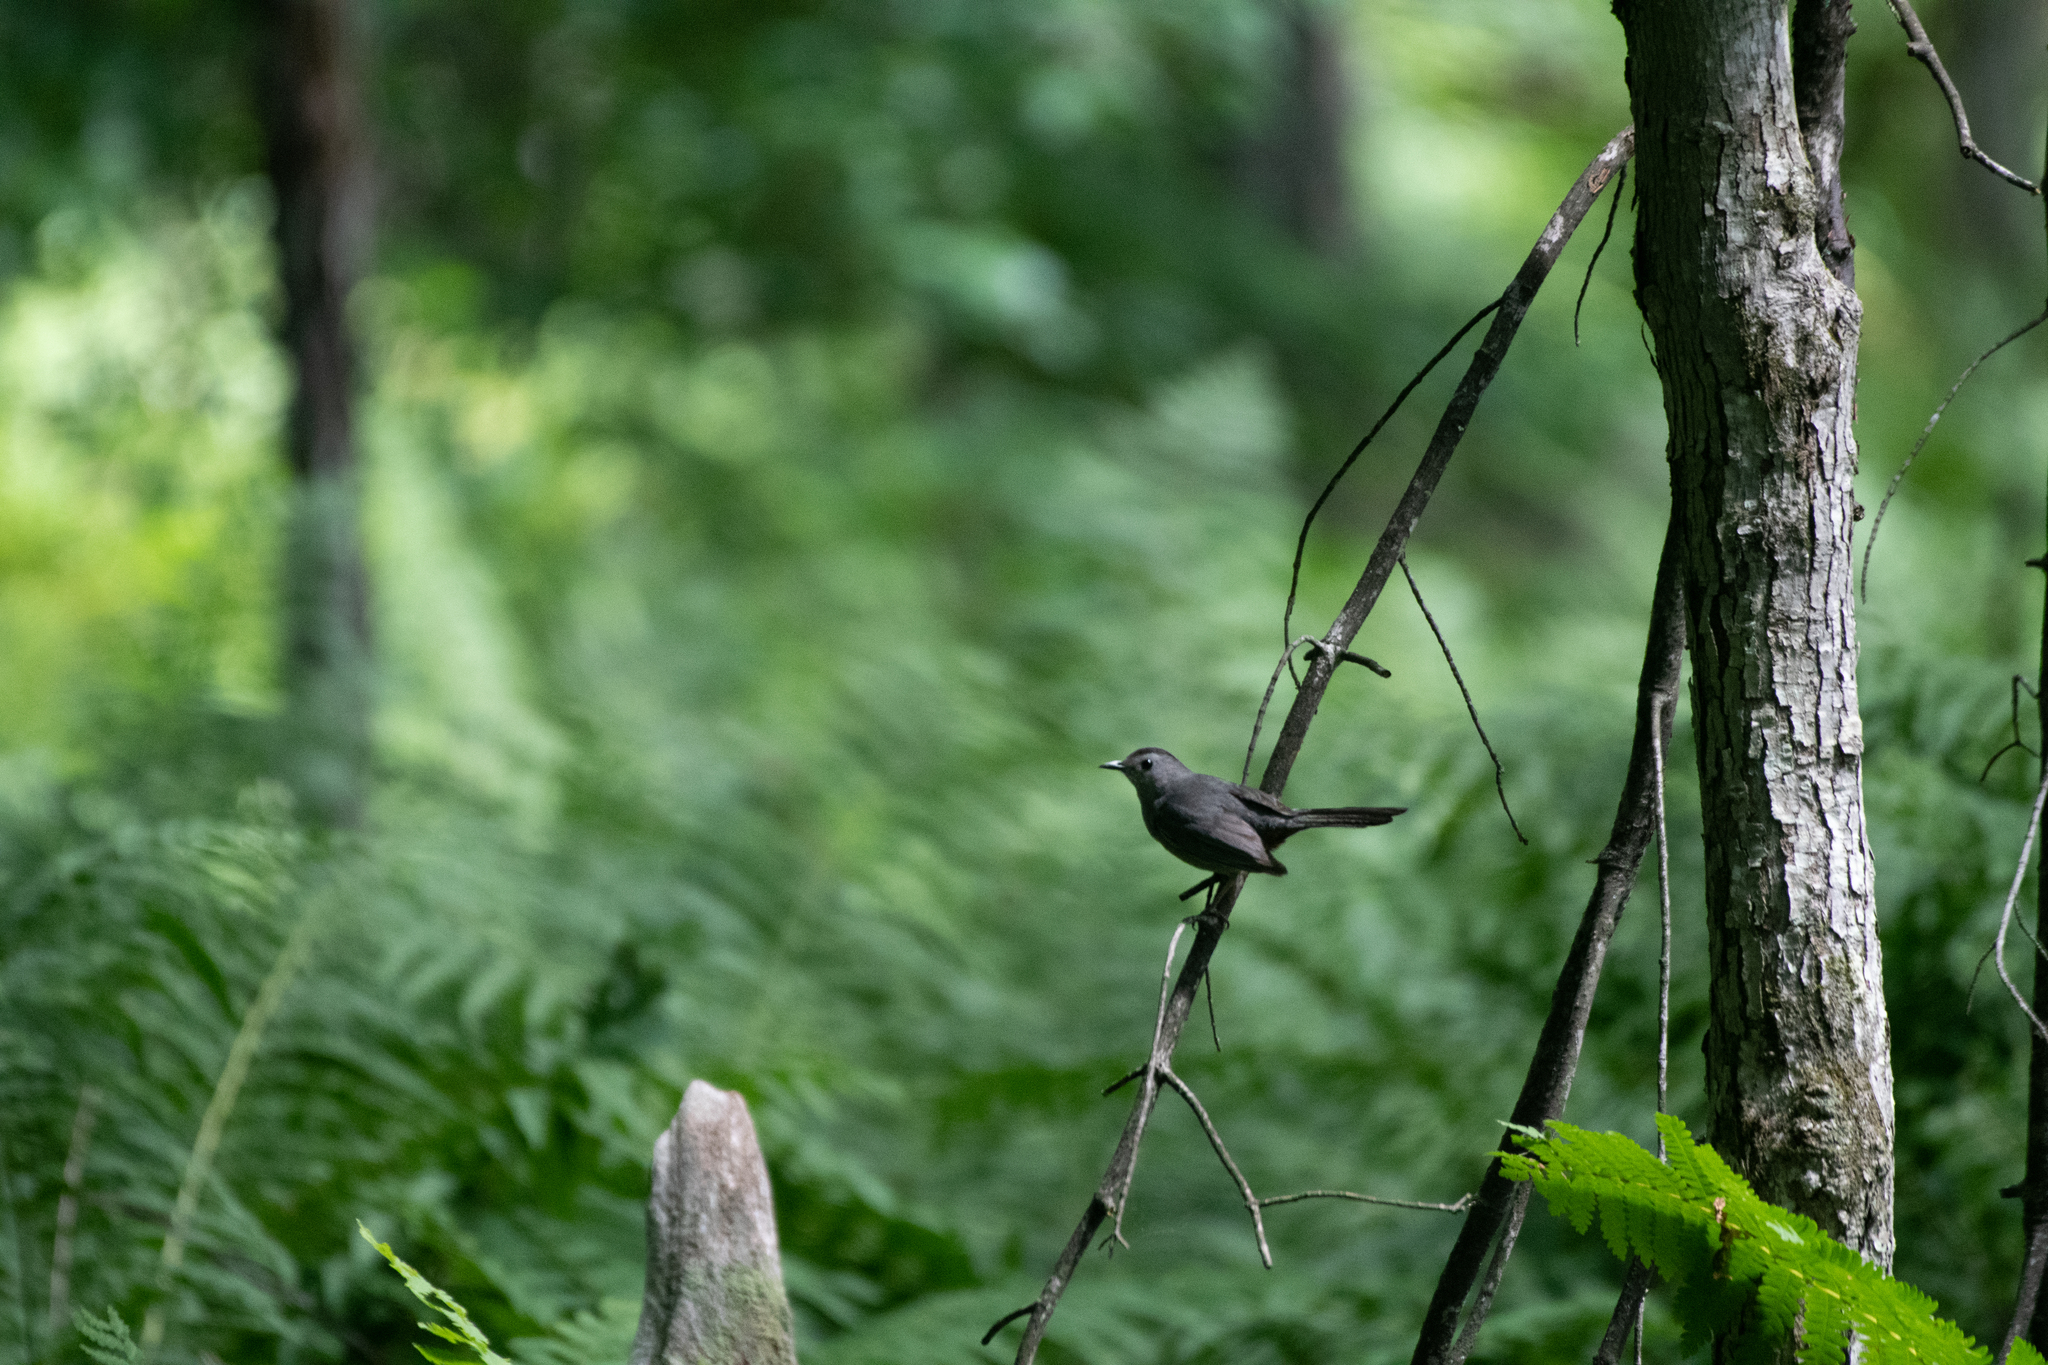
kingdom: Animalia
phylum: Chordata
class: Aves
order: Passeriformes
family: Mimidae
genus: Dumetella
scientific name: Dumetella carolinensis
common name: Gray catbird
